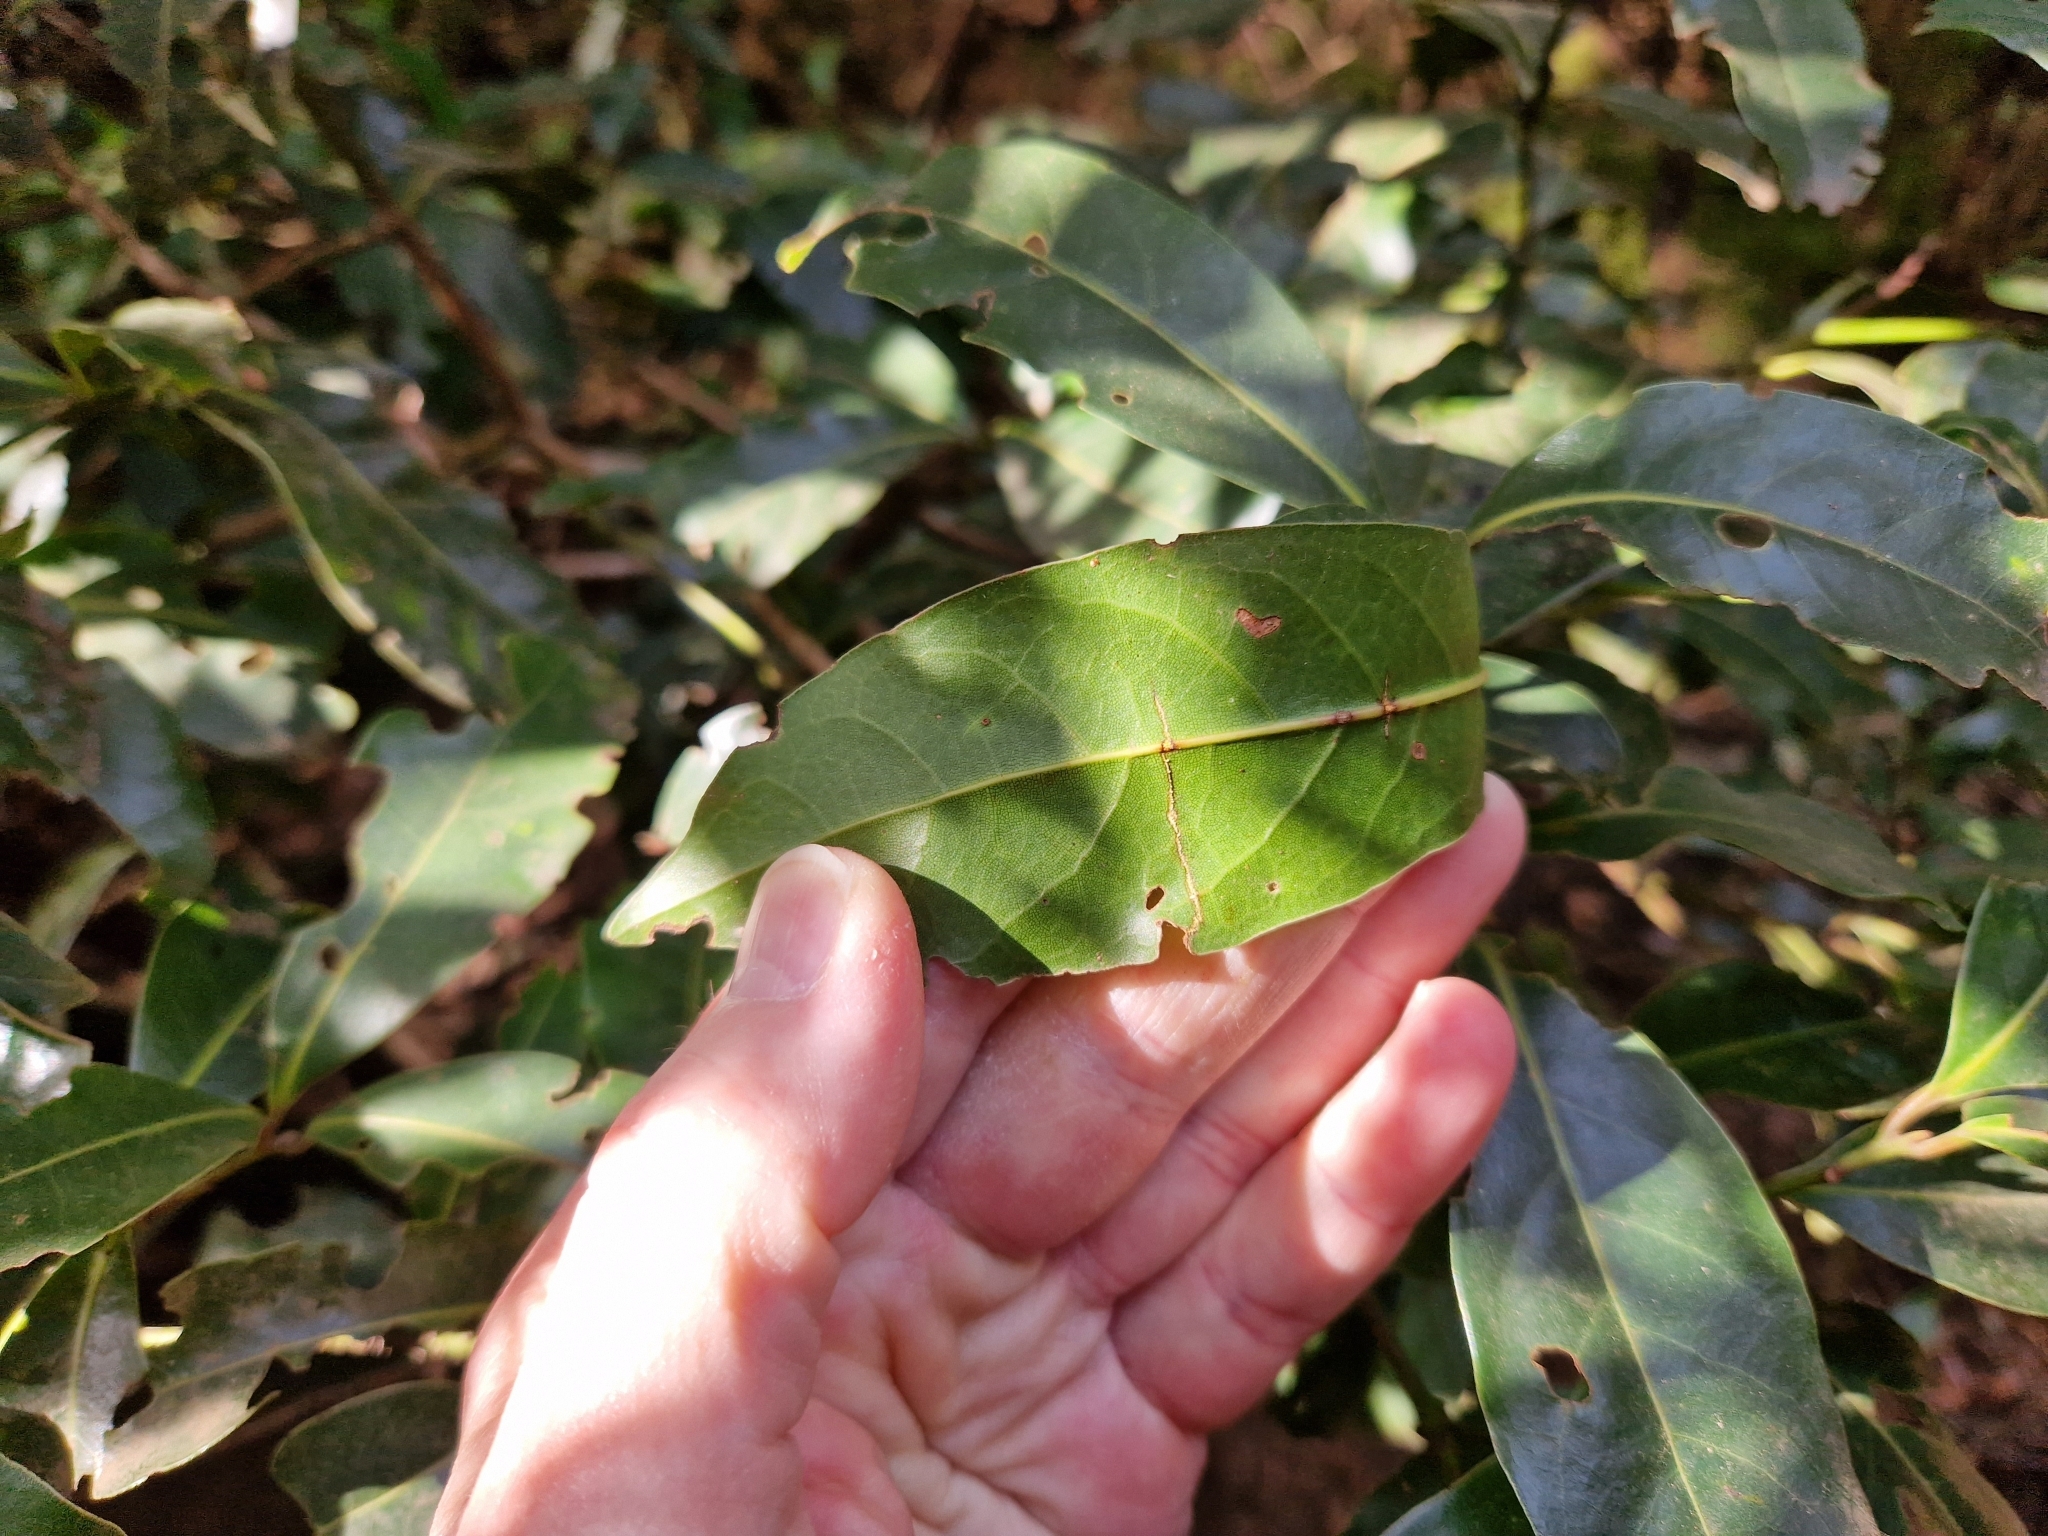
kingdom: Plantae
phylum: Tracheophyta
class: Magnoliopsida
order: Laurales
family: Lauraceae
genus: Apollonias
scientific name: Apollonias barbujana
